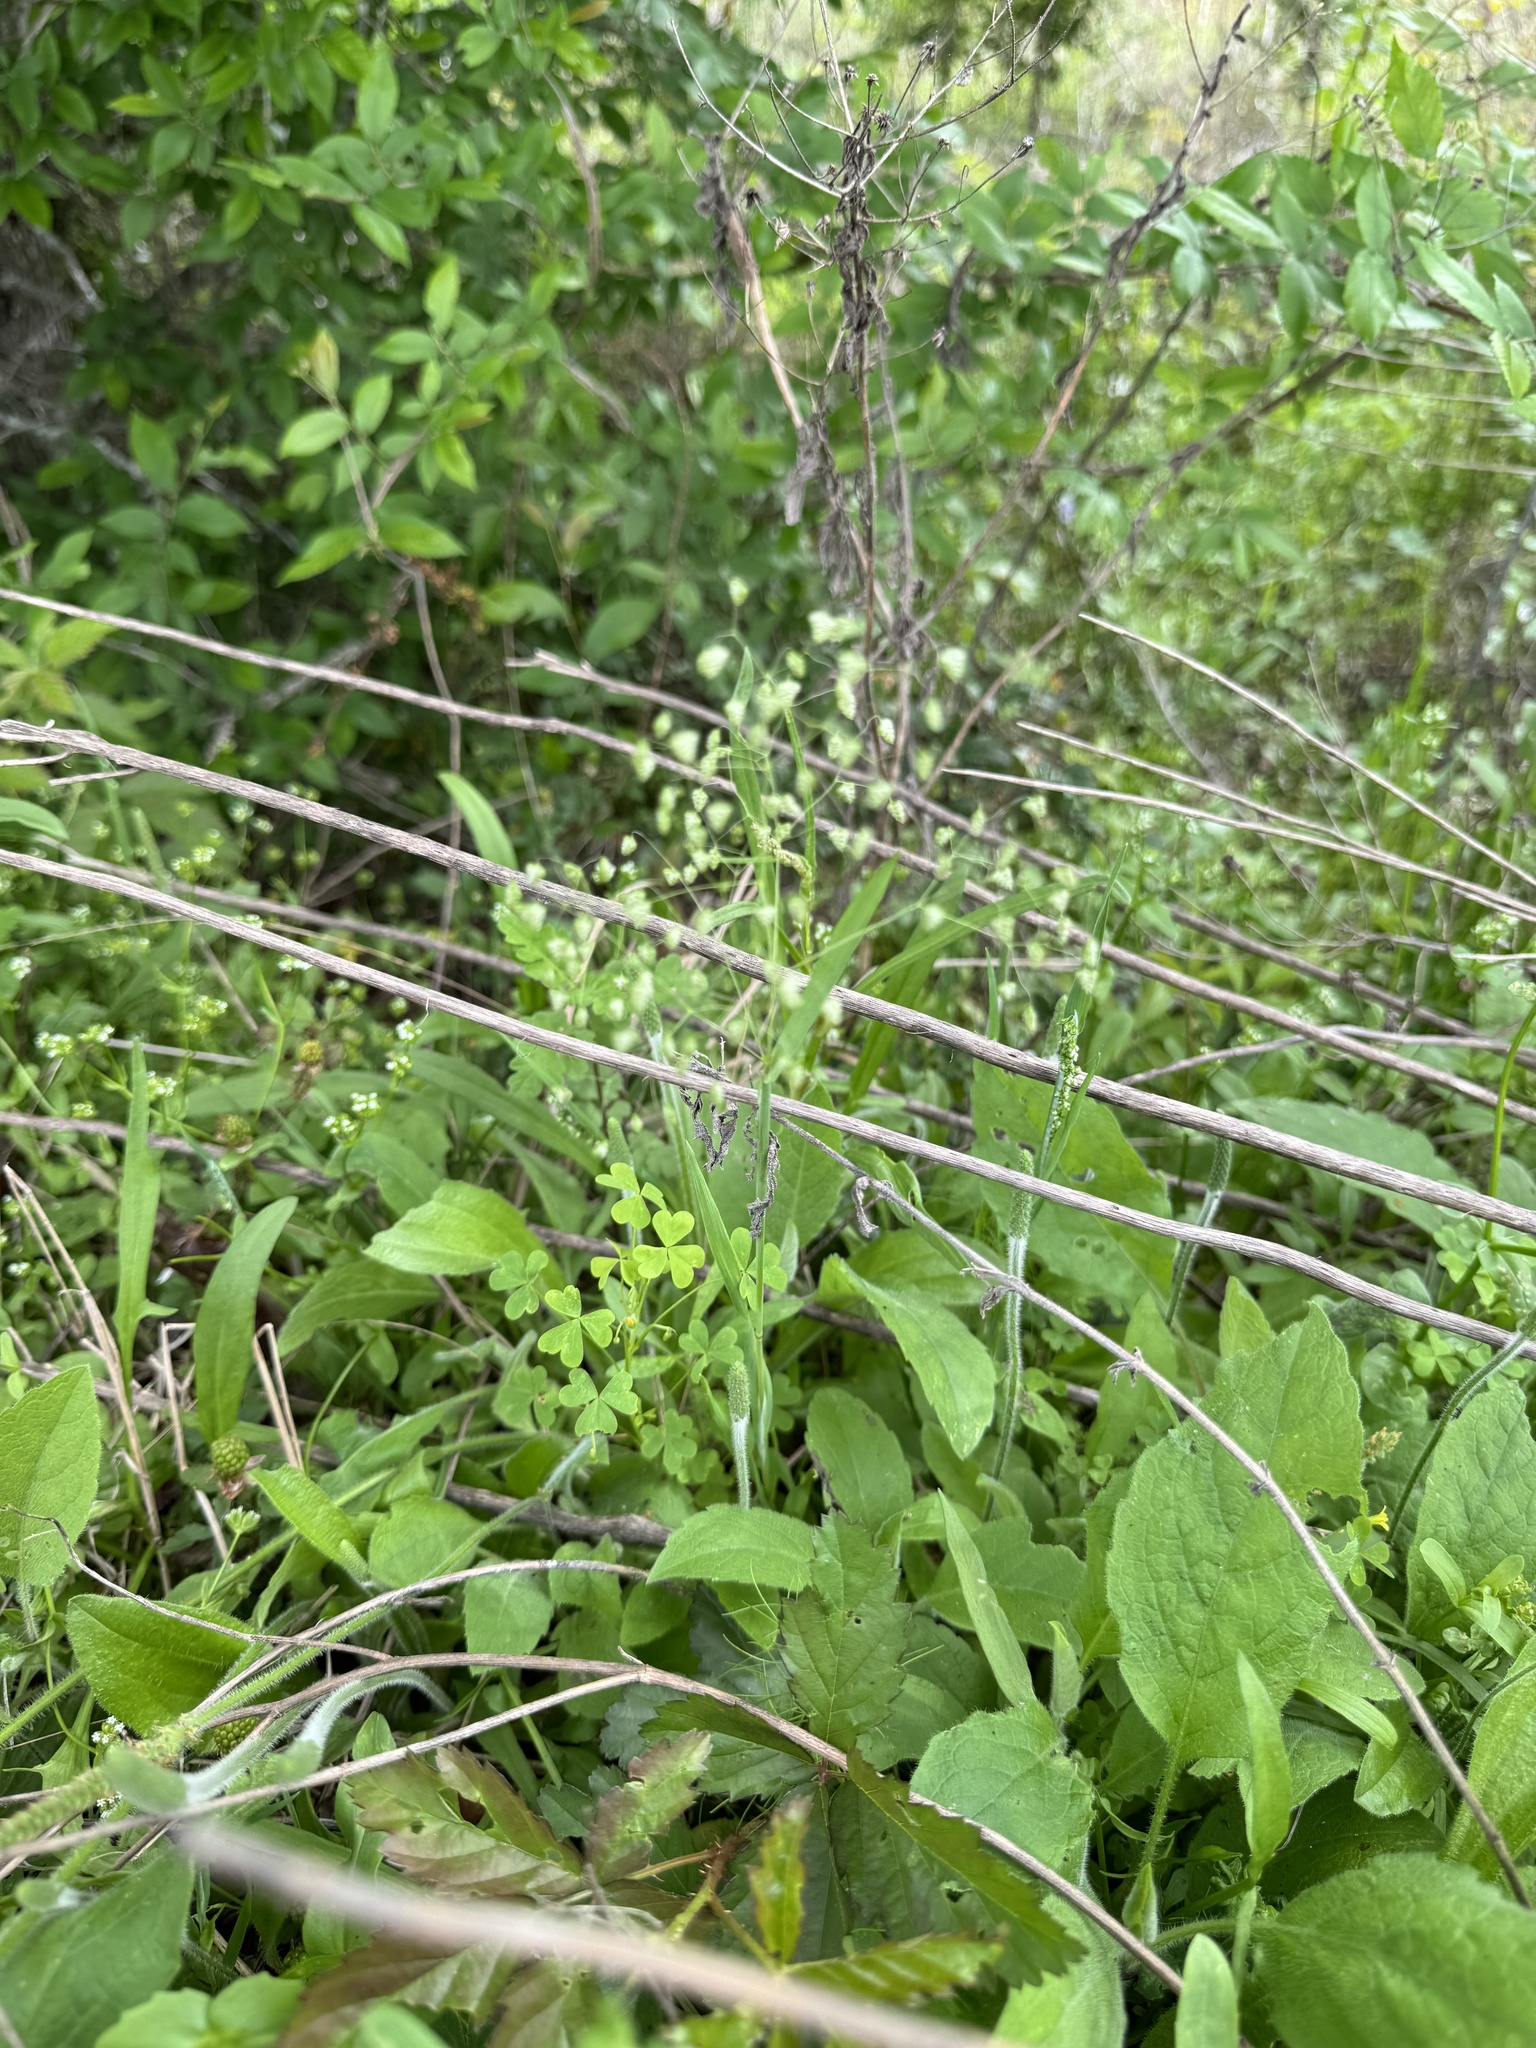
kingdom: Plantae
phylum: Tracheophyta
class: Liliopsida
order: Poales
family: Poaceae
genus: Briza
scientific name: Briza minor
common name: Lesser quaking-grass
